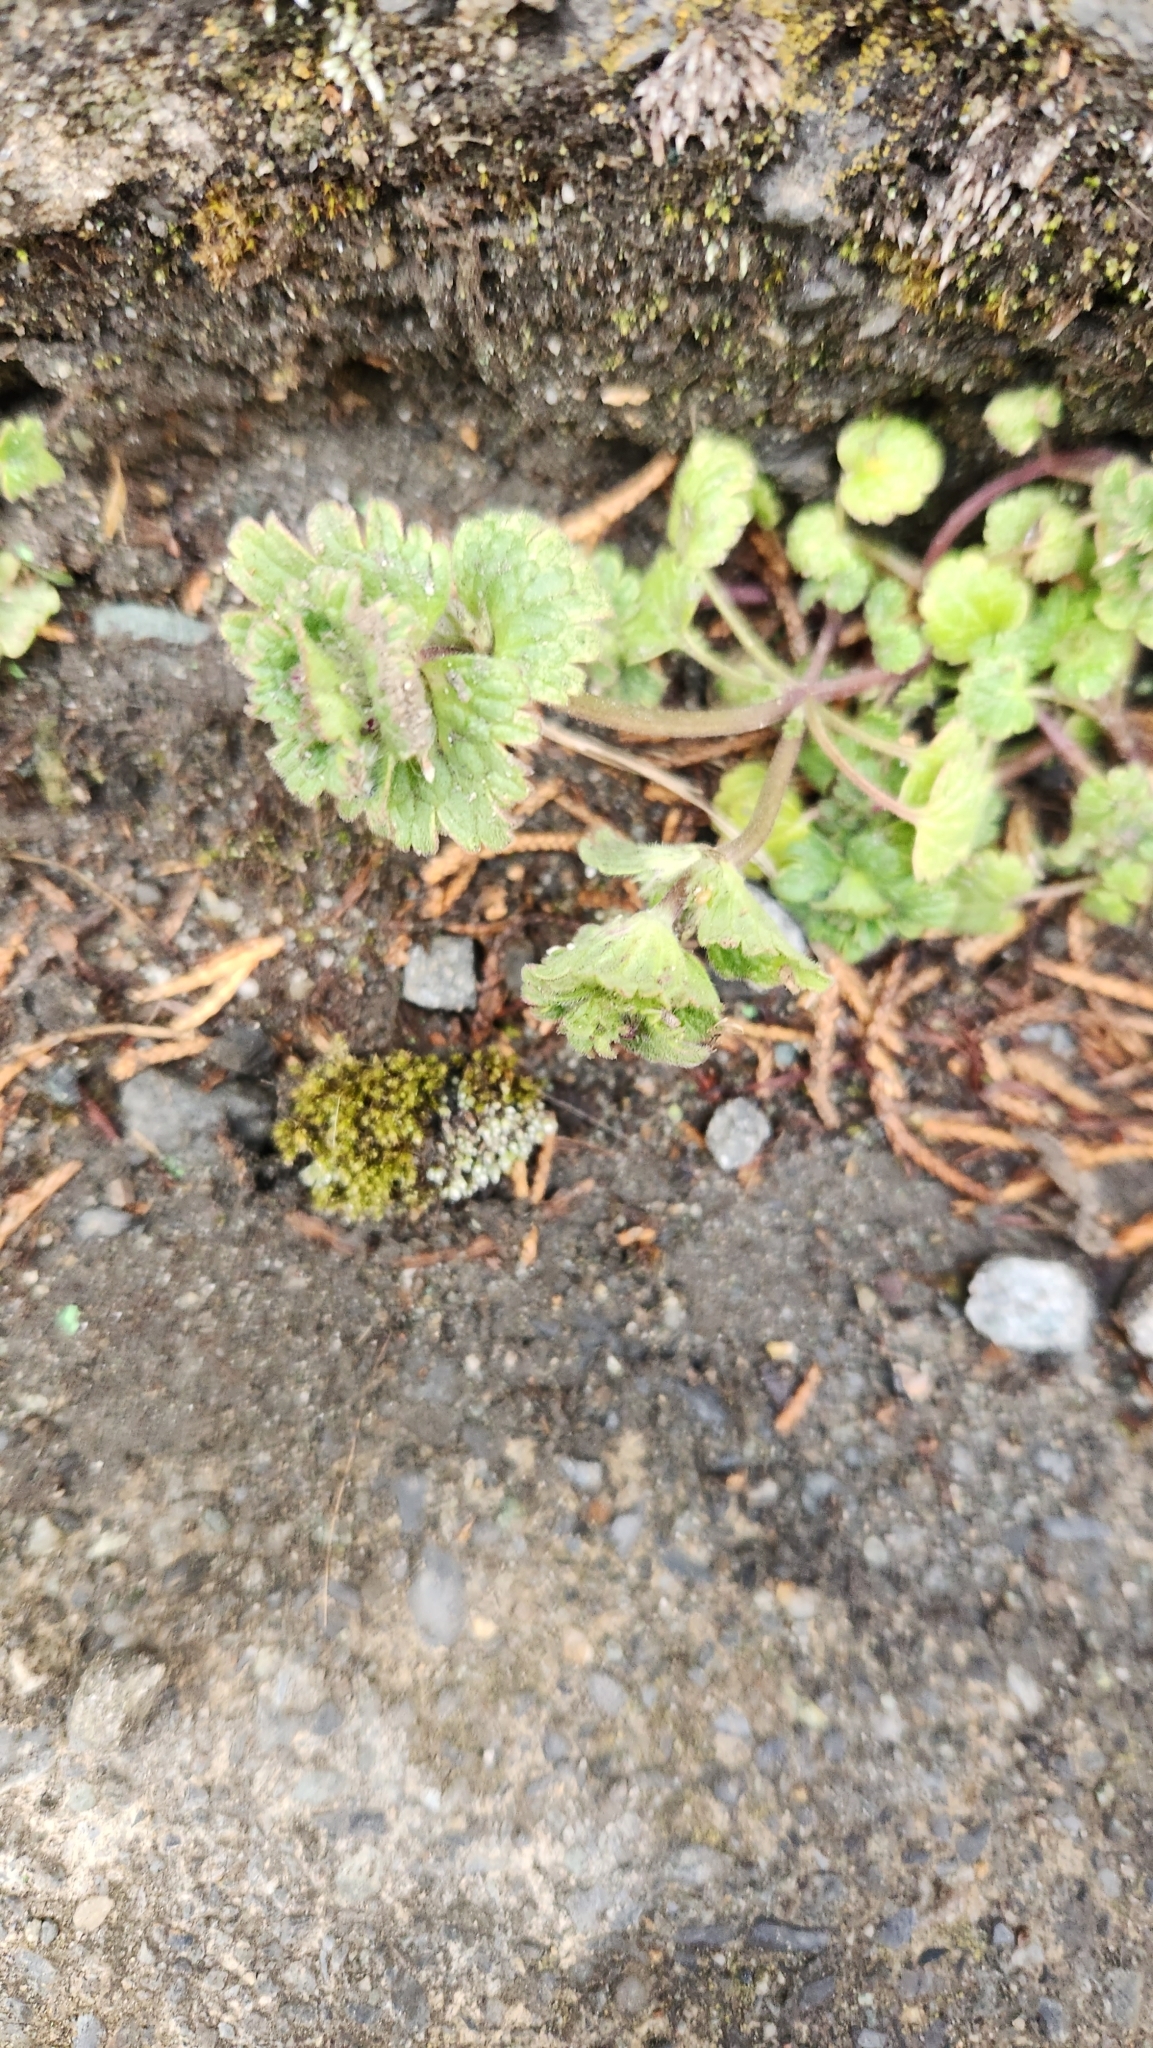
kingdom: Plantae
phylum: Tracheophyta
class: Magnoliopsida
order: Lamiales
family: Lamiaceae
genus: Lamium
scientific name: Lamium amplexicaule
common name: Henbit dead-nettle
